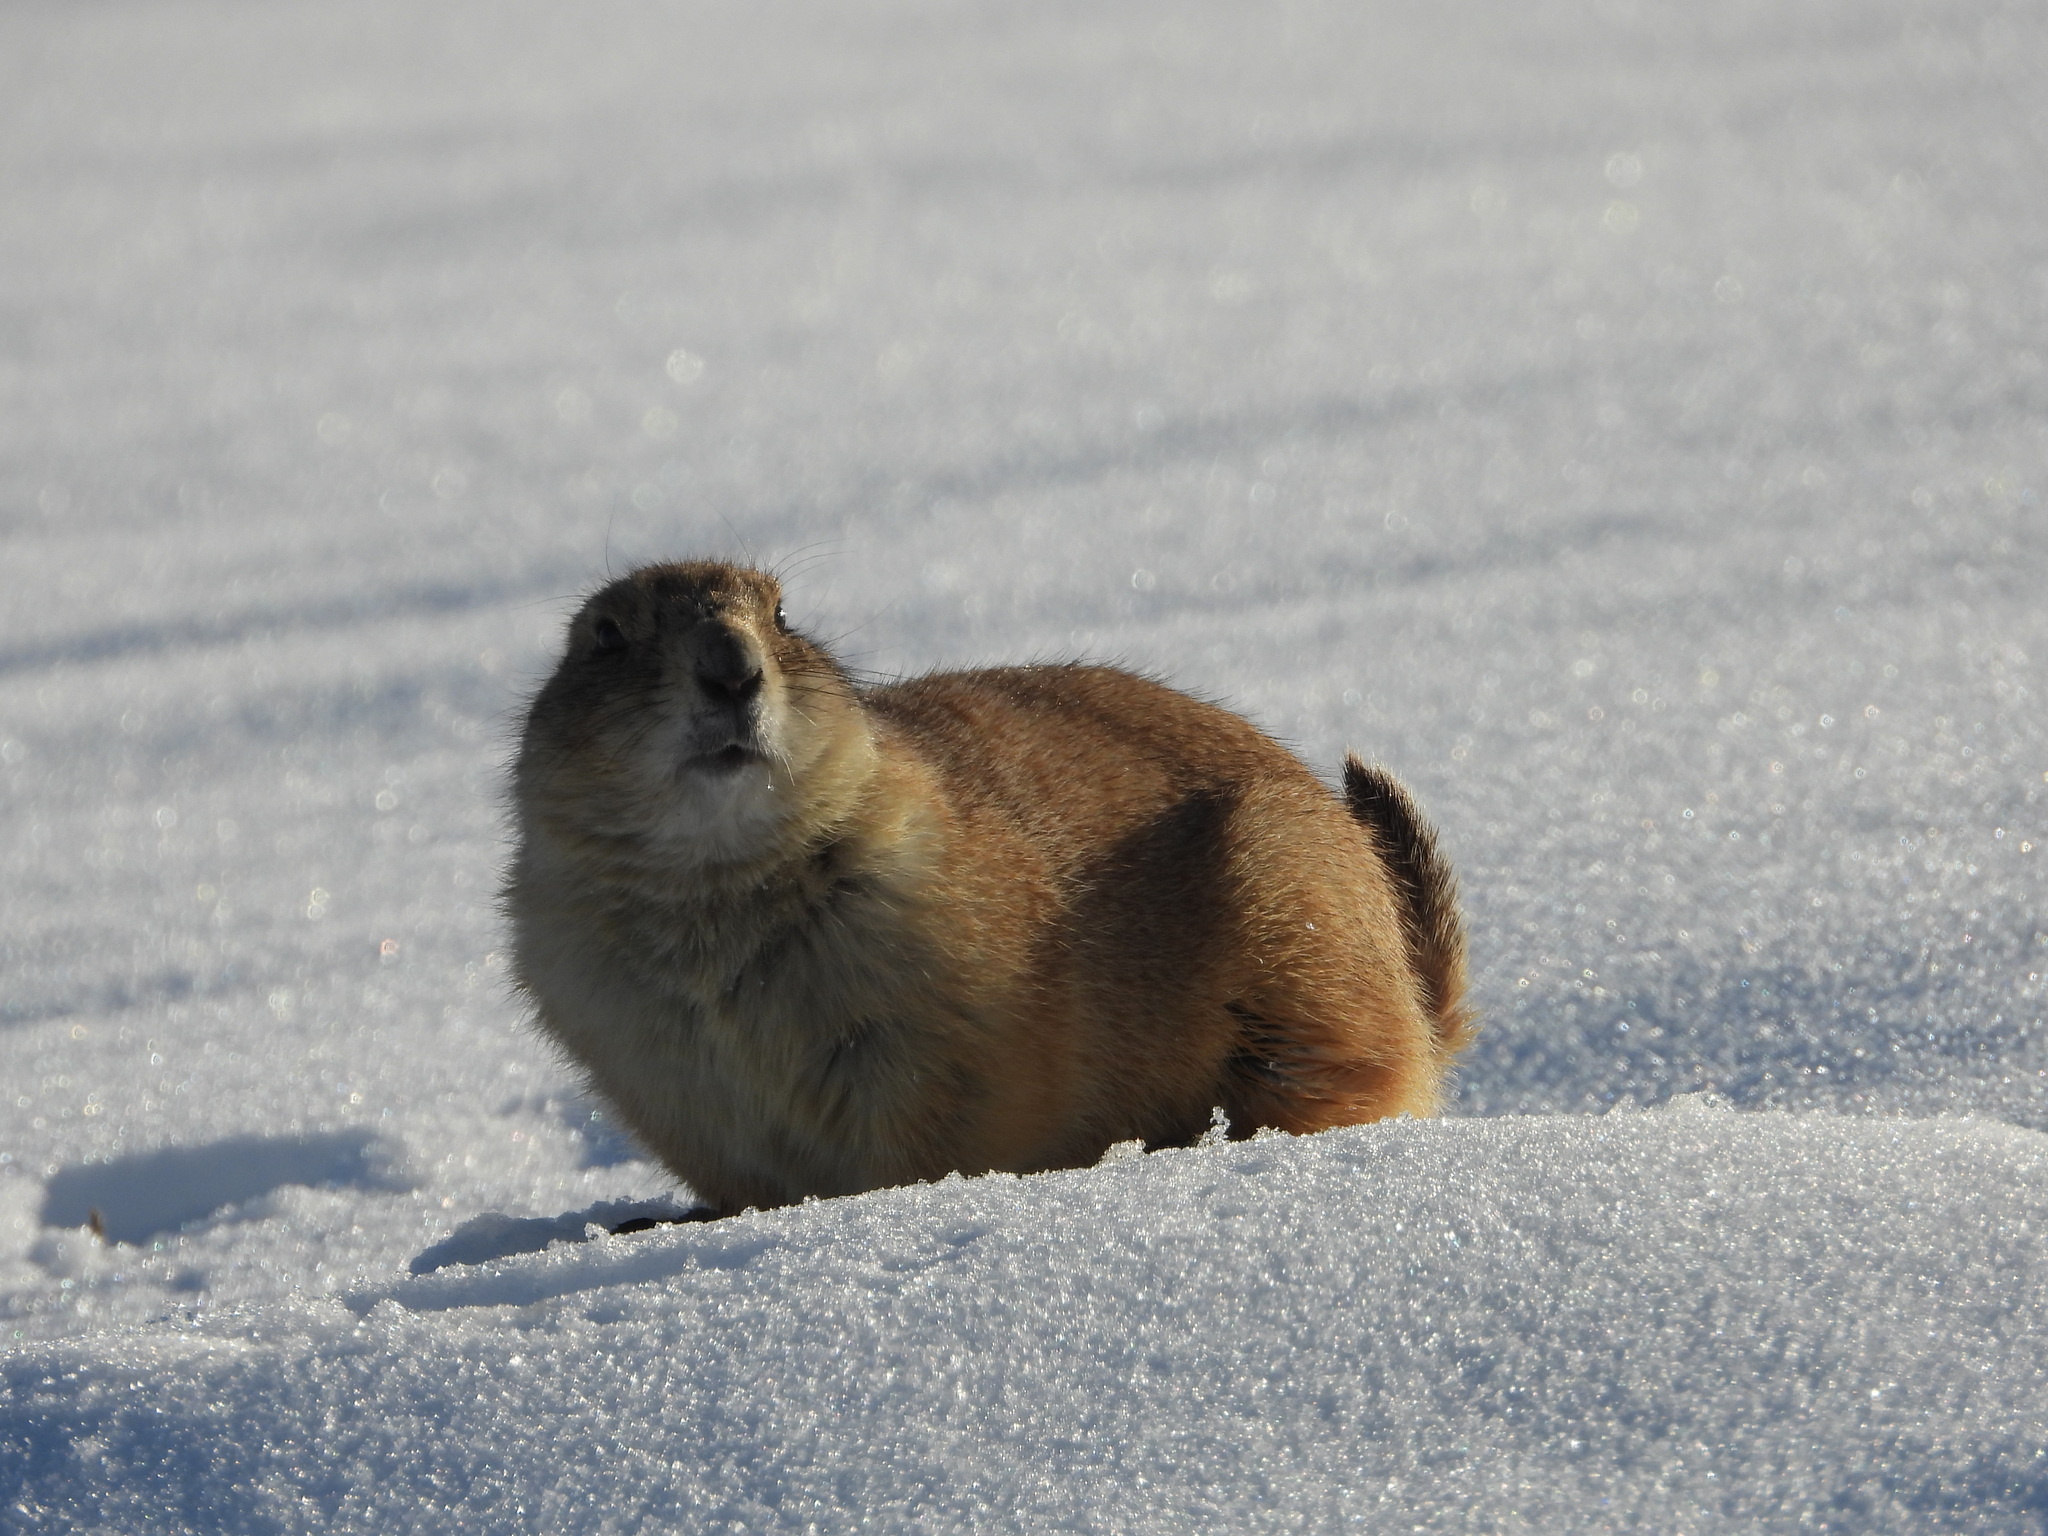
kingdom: Animalia
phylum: Chordata
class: Mammalia
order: Rodentia
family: Sciuridae
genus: Cynomys
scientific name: Cynomys ludovicianus
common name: Black-tailed prairie dog
